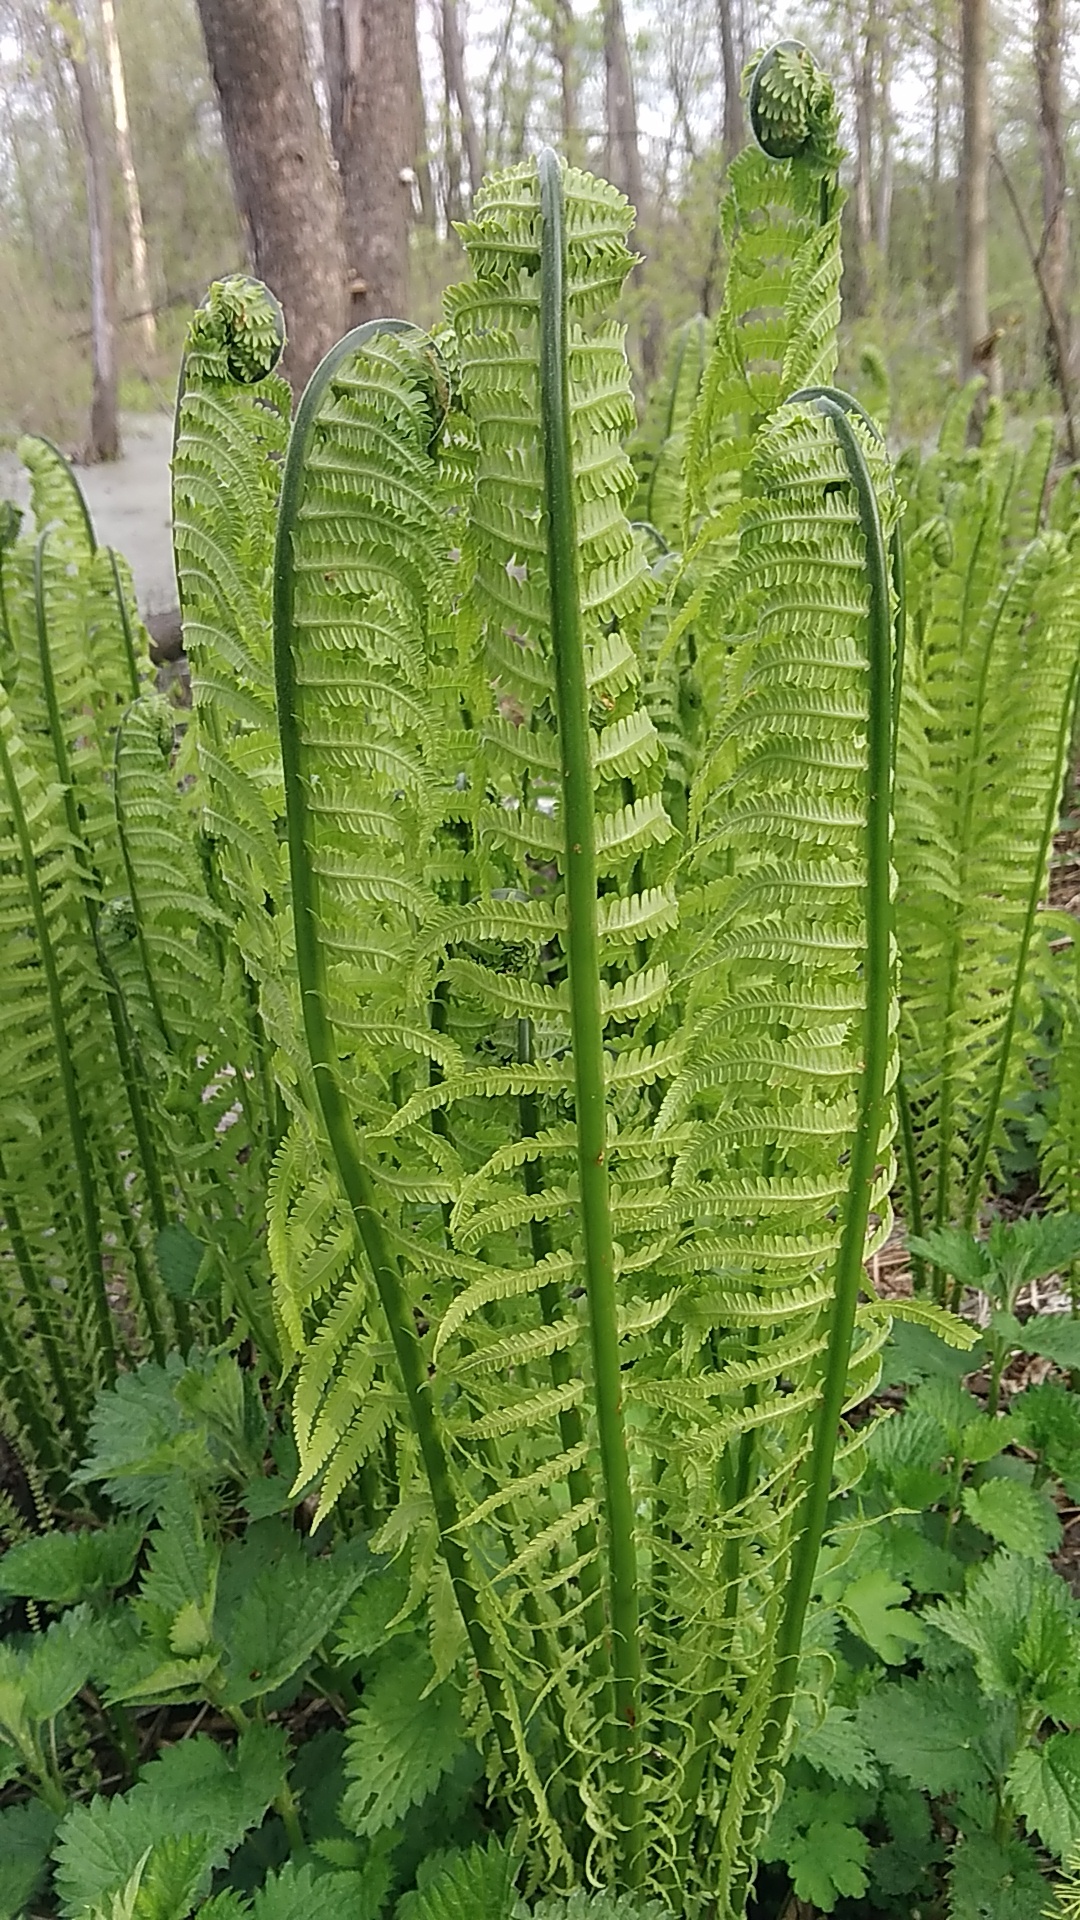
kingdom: Plantae
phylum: Tracheophyta
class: Polypodiopsida
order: Polypodiales
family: Onocleaceae
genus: Matteuccia
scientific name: Matteuccia struthiopteris
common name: Ostrich fern
